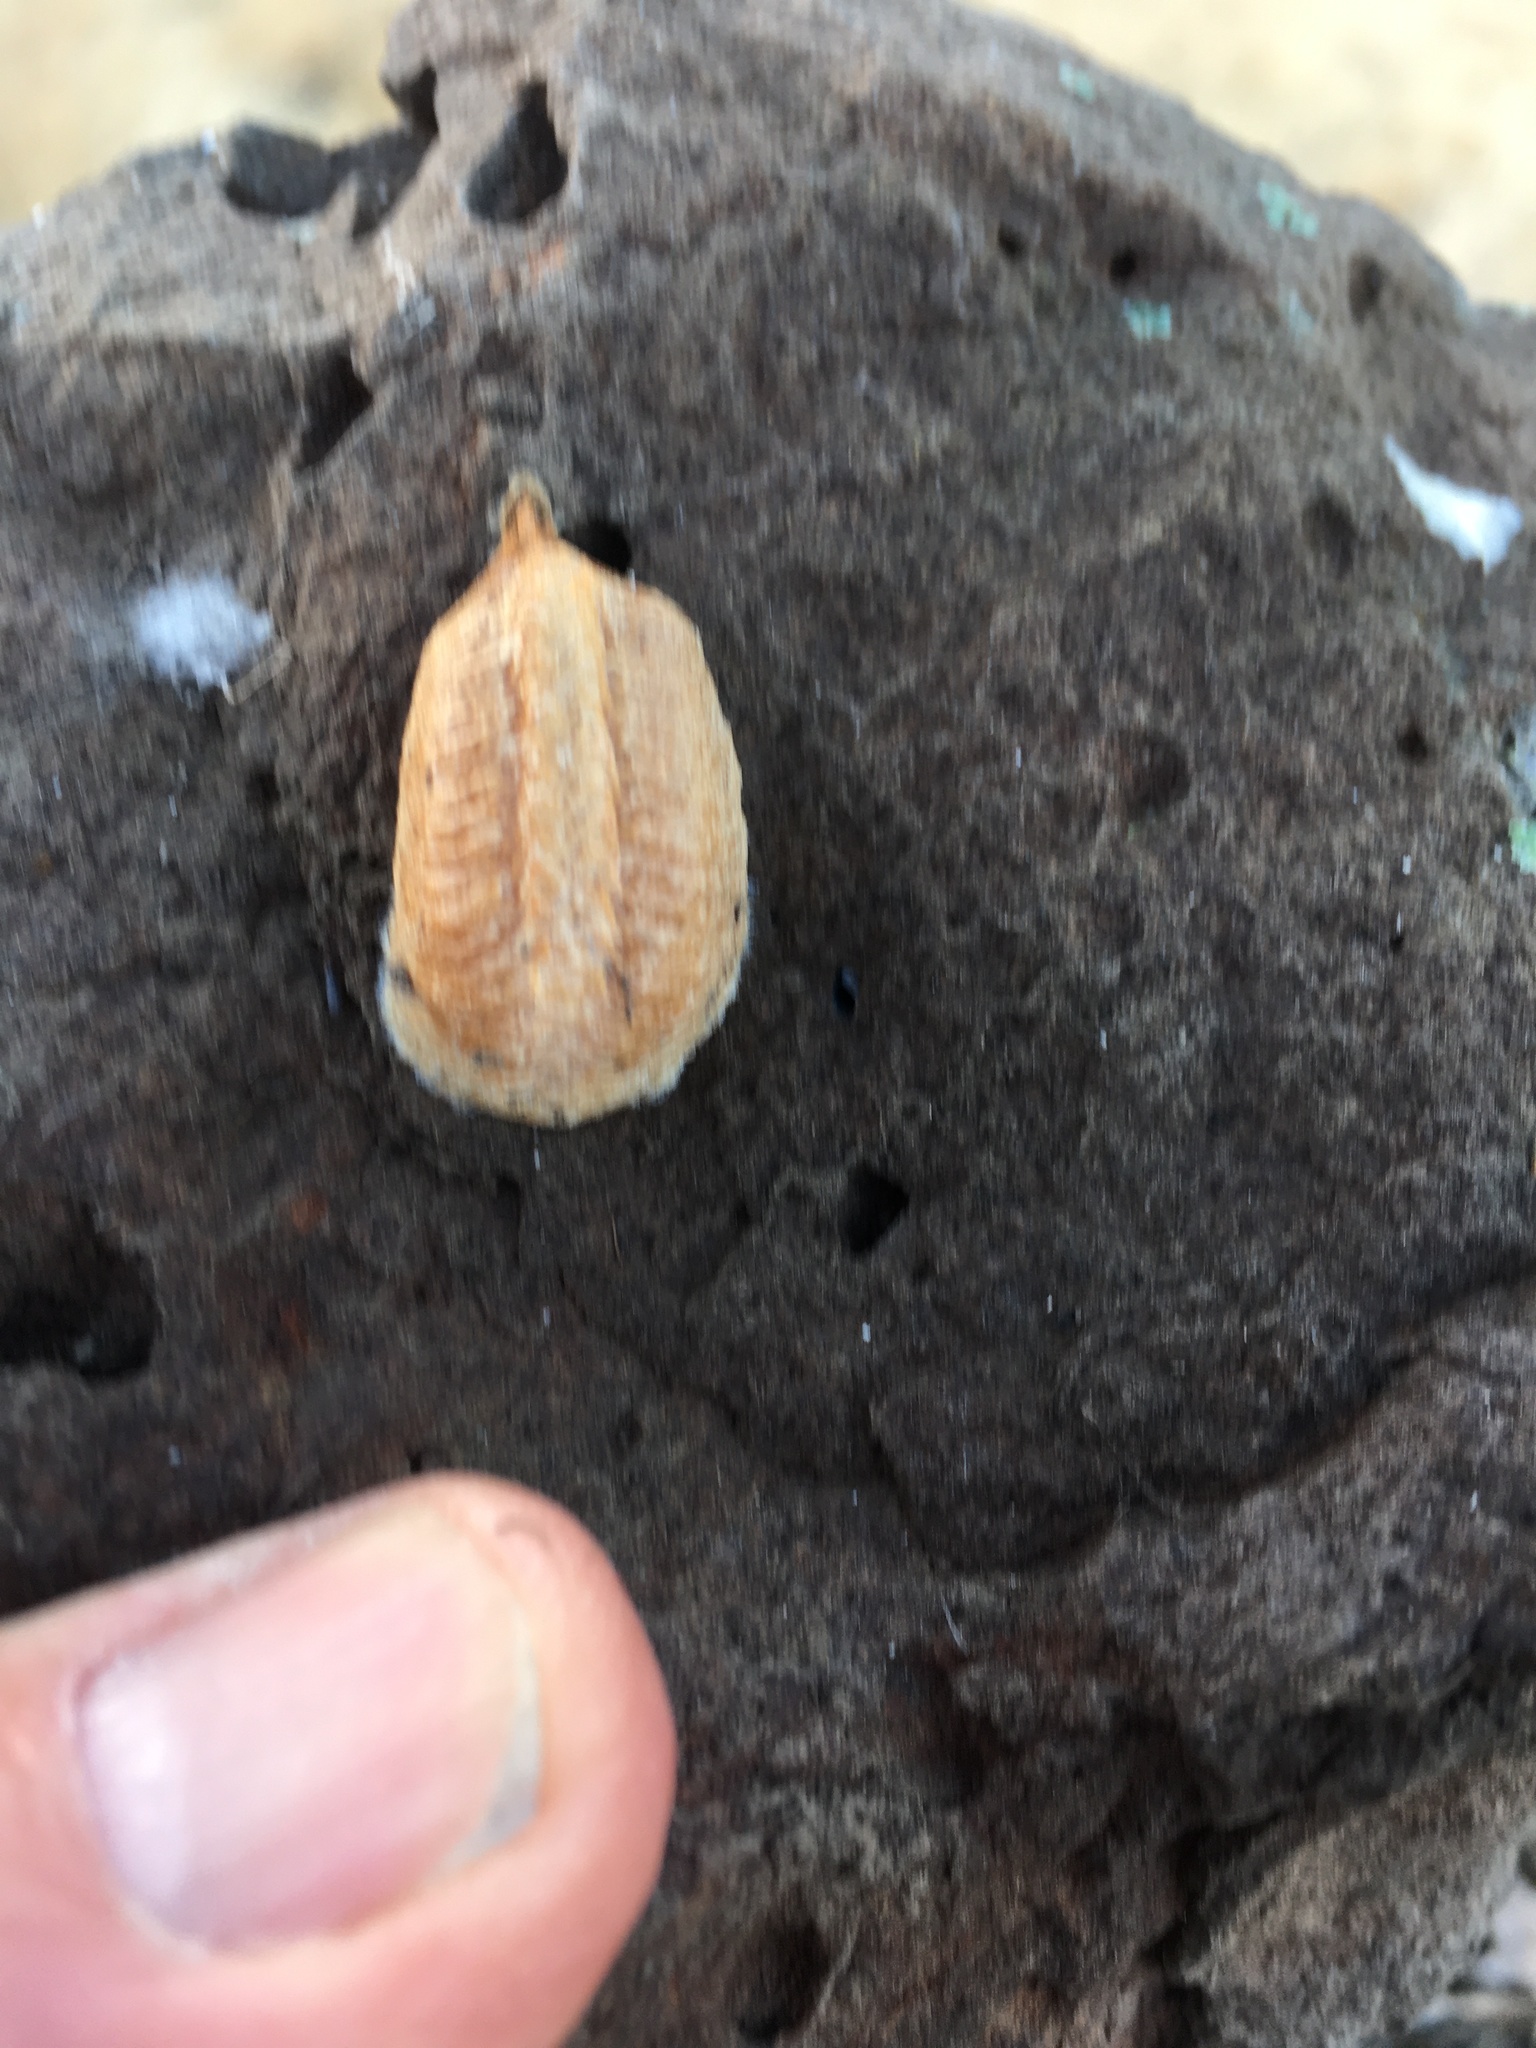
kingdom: Animalia
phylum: Arthropoda
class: Insecta
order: Mantodea
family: Mantidae
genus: Mantis
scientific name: Mantis religiosa
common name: Praying mantis
